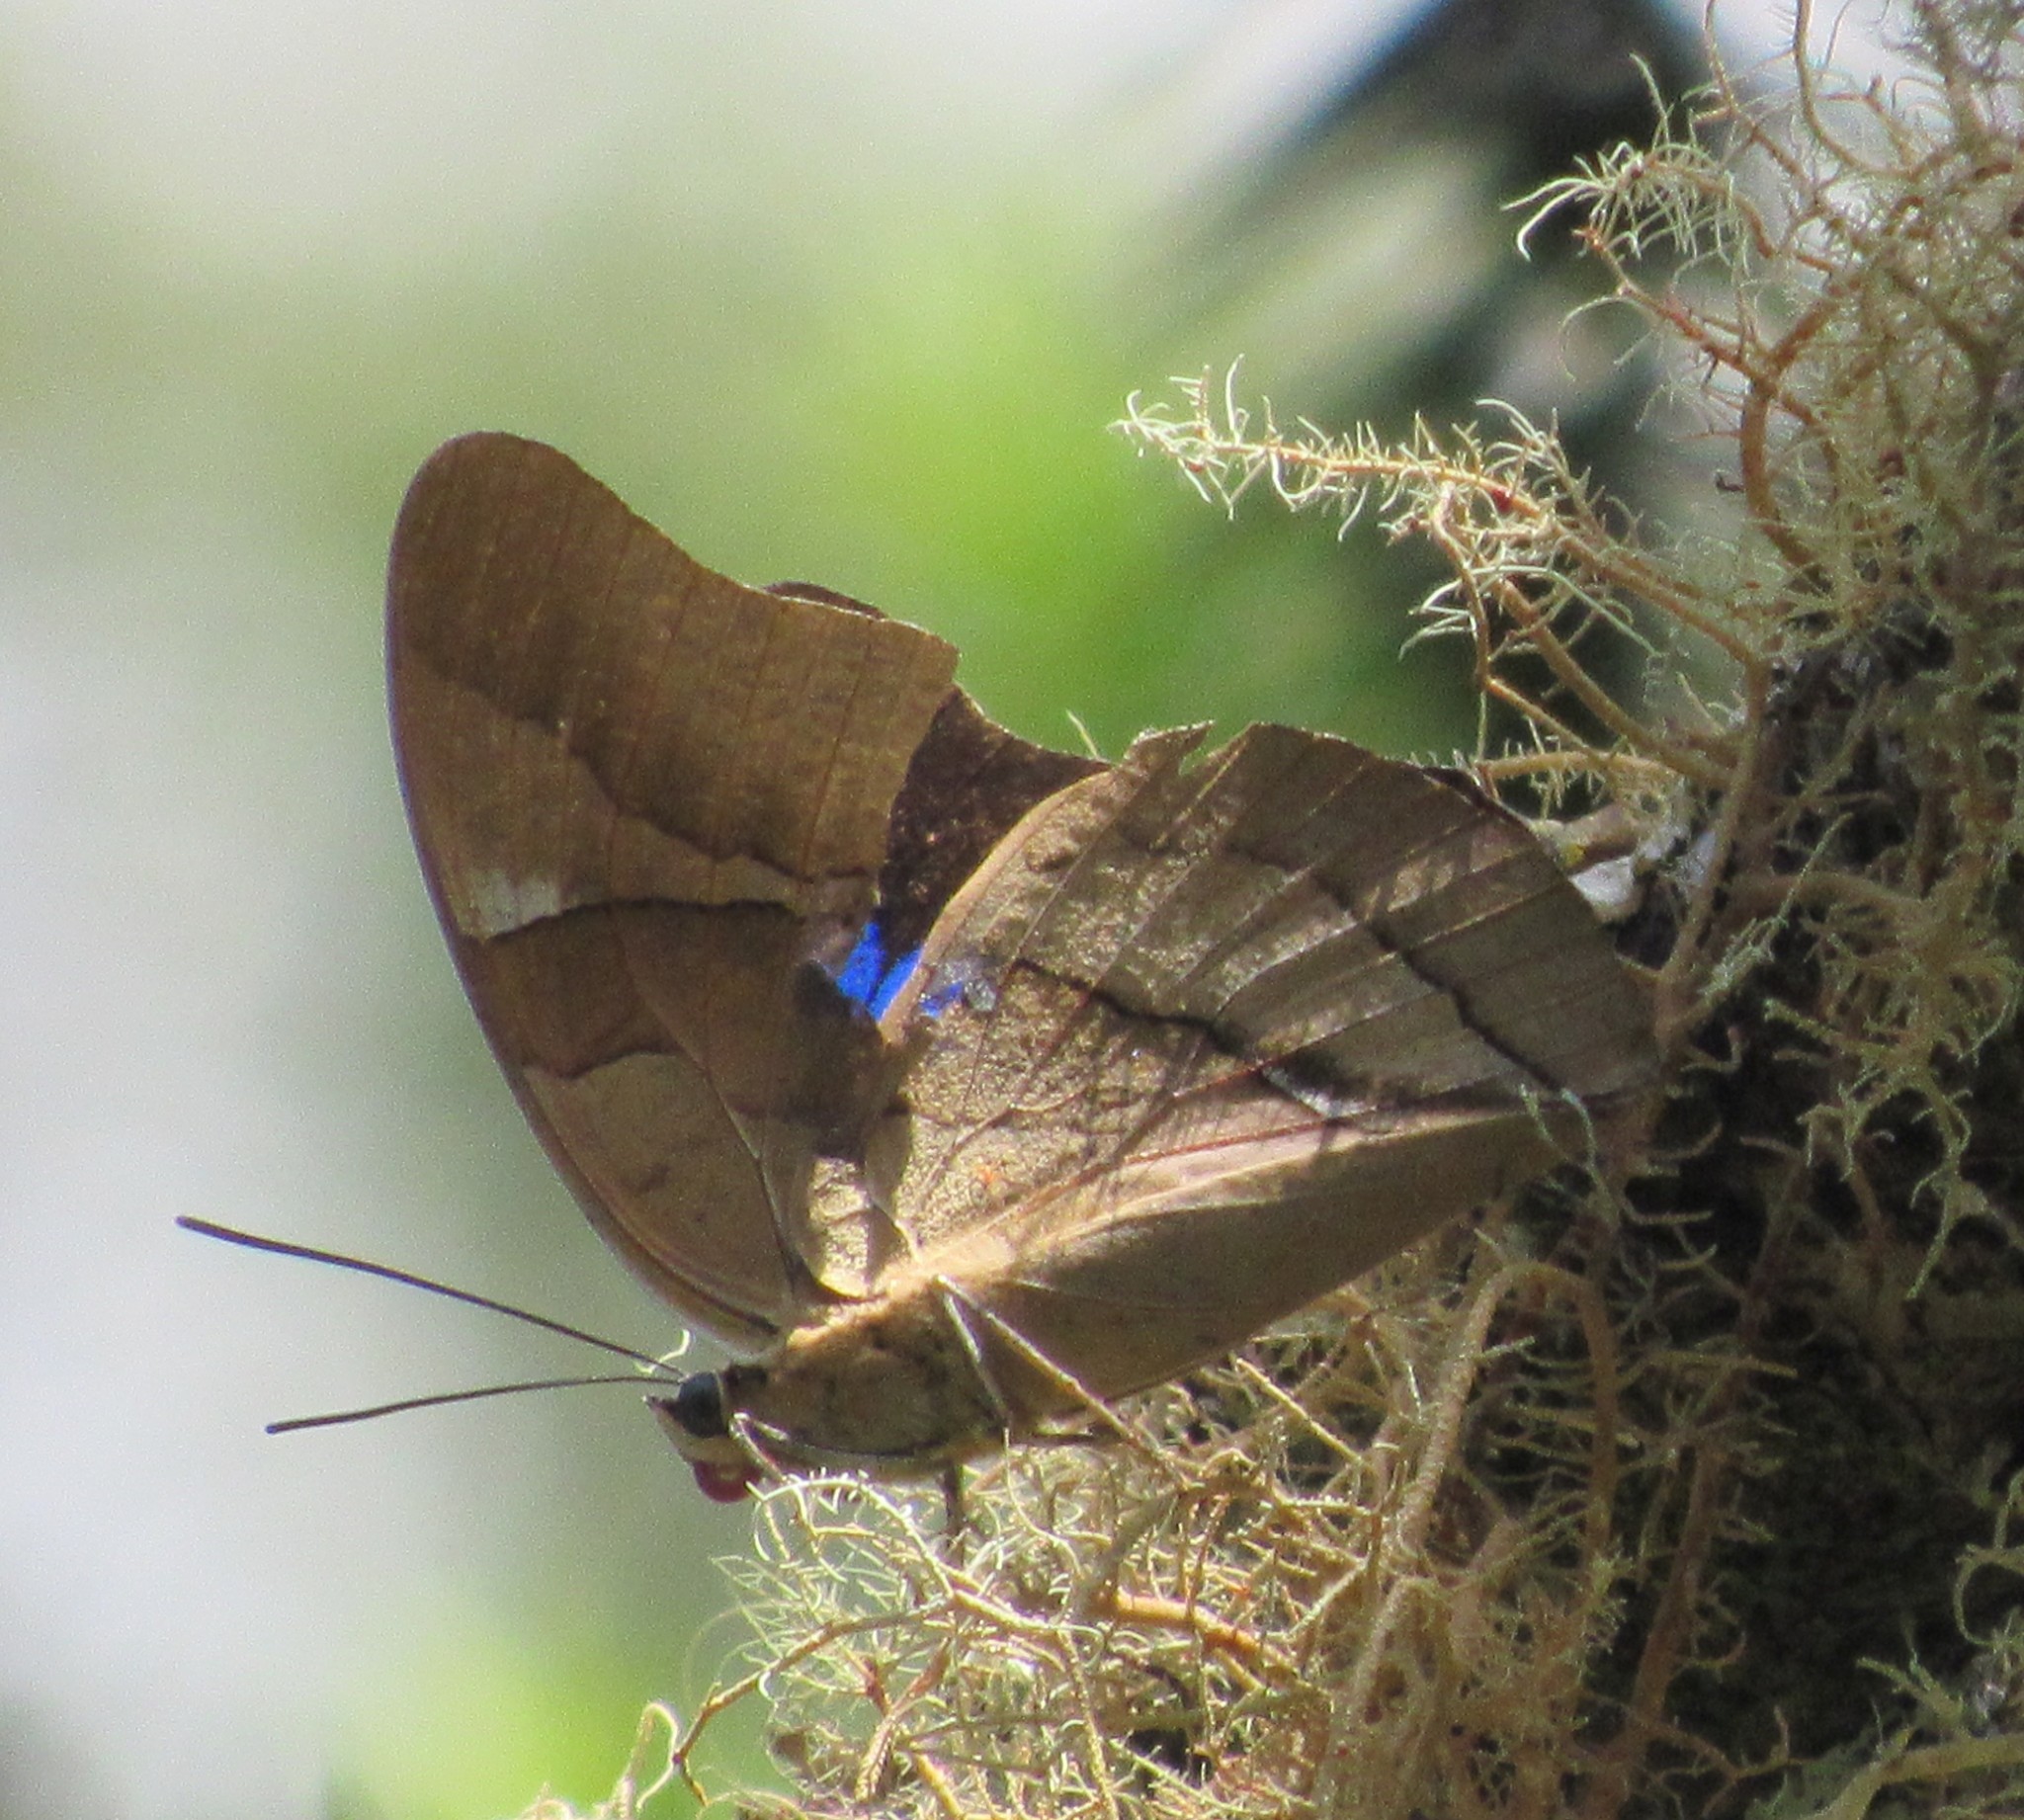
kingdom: Animalia
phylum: Arthropoda
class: Insecta
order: Lepidoptera
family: Nymphalidae
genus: Prepona
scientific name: Prepona Archaeoprepona chalciope
